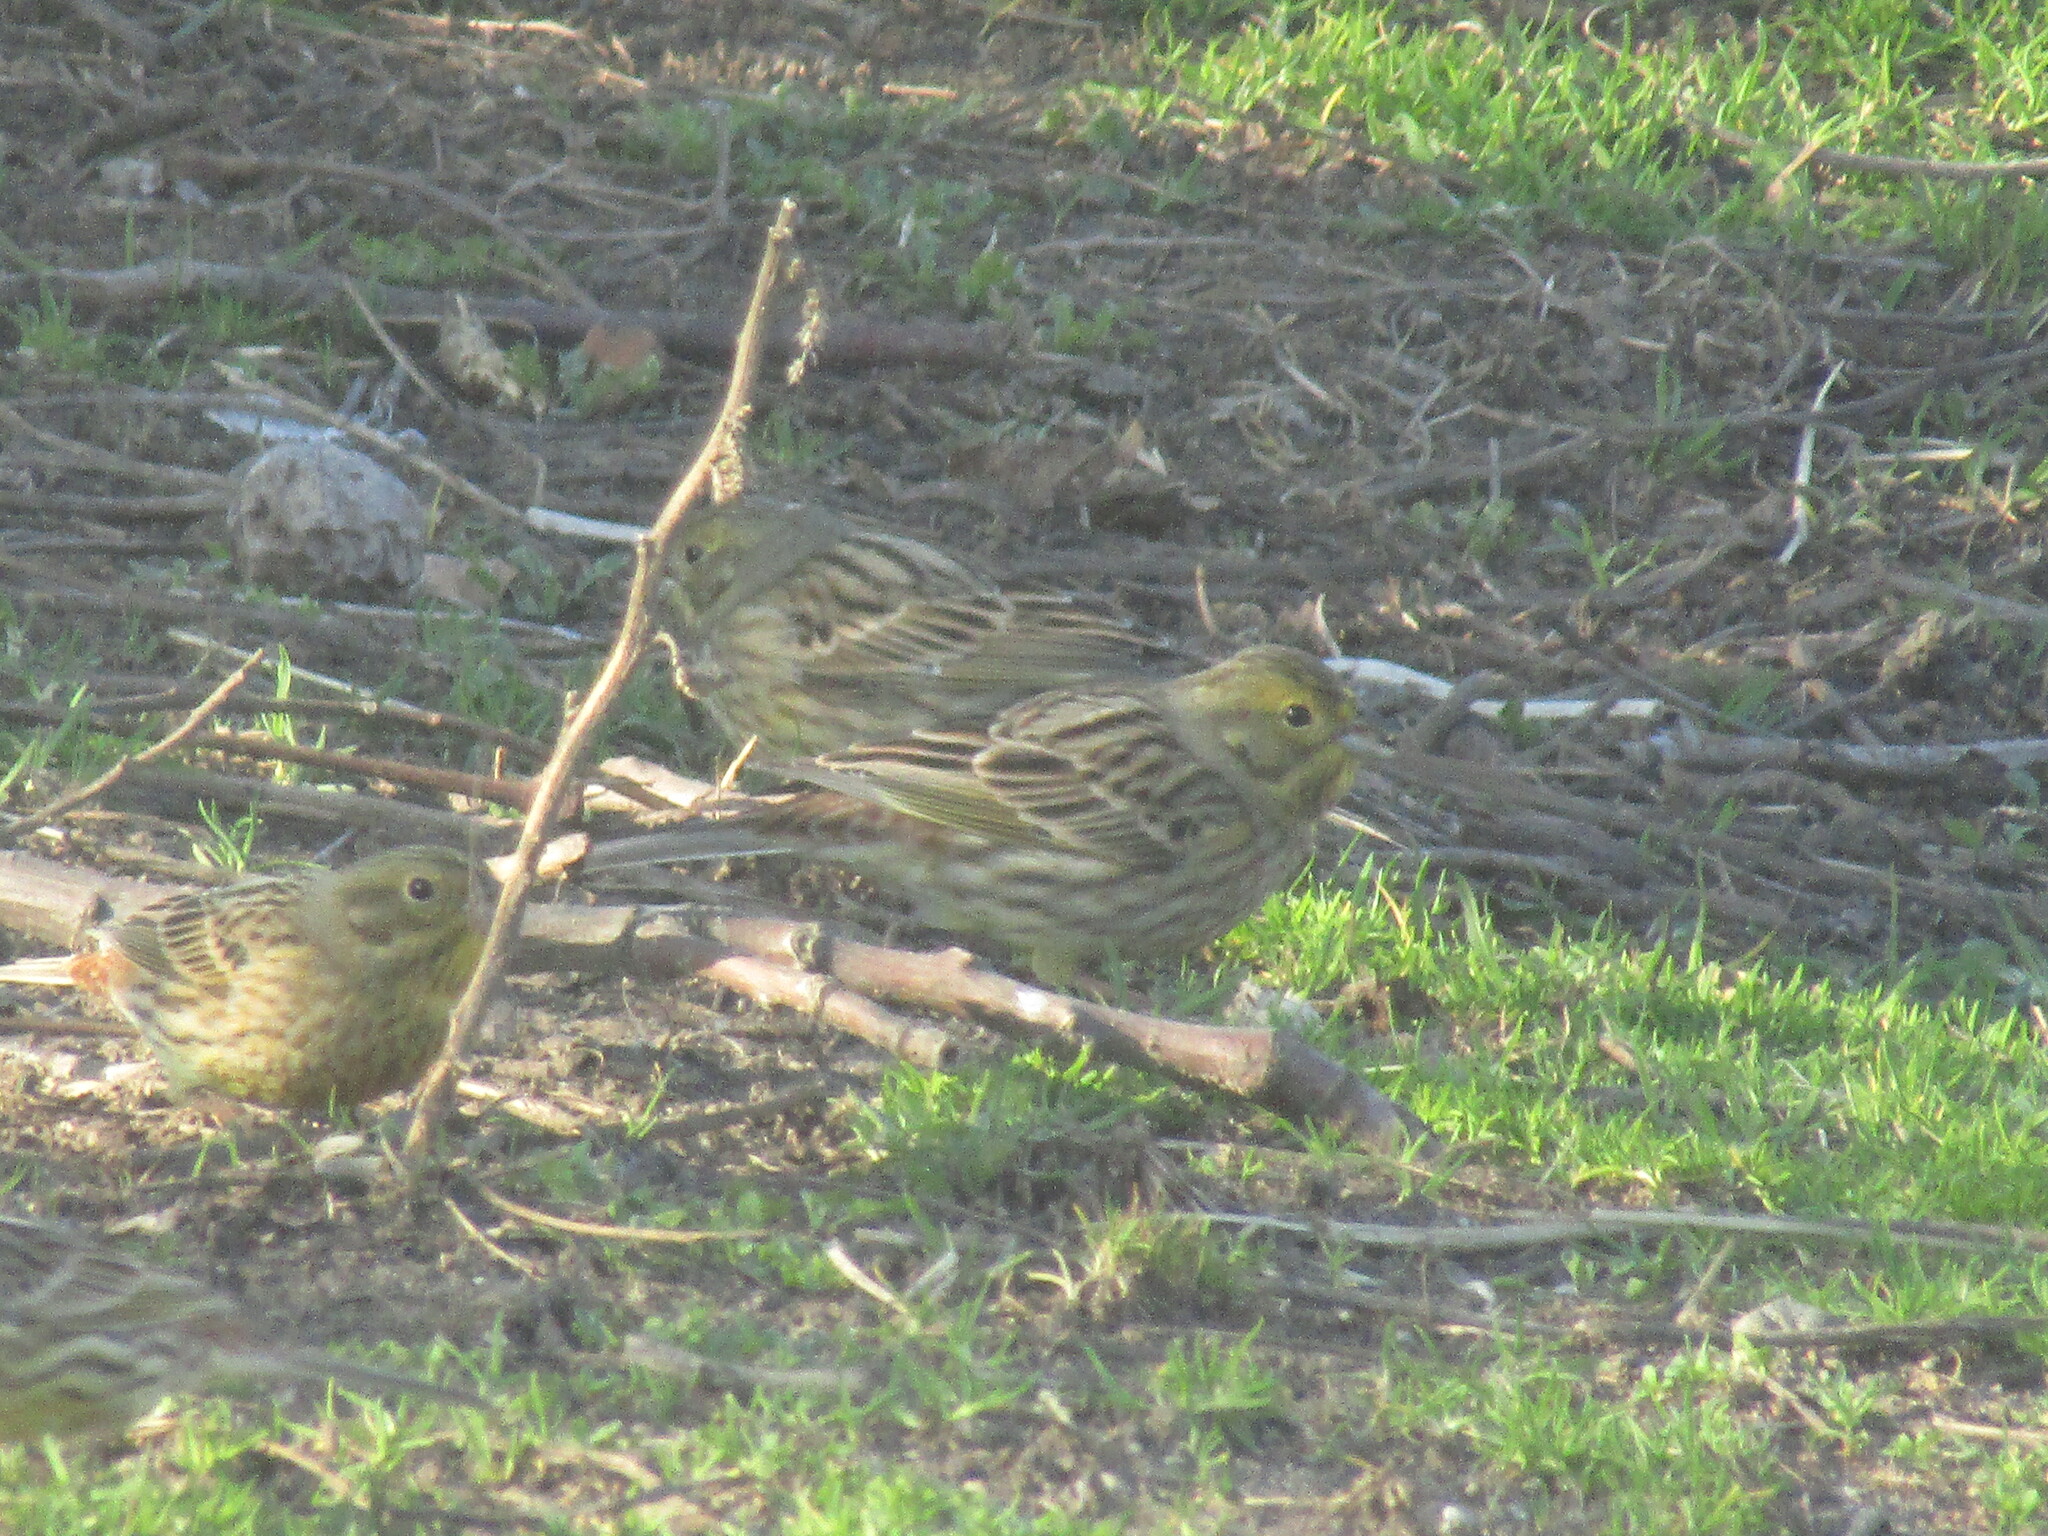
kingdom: Animalia
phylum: Chordata
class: Aves
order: Passeriformes
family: Emberizidae
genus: Emberiza
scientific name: Emberiza citrinella
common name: Yellowhammer
